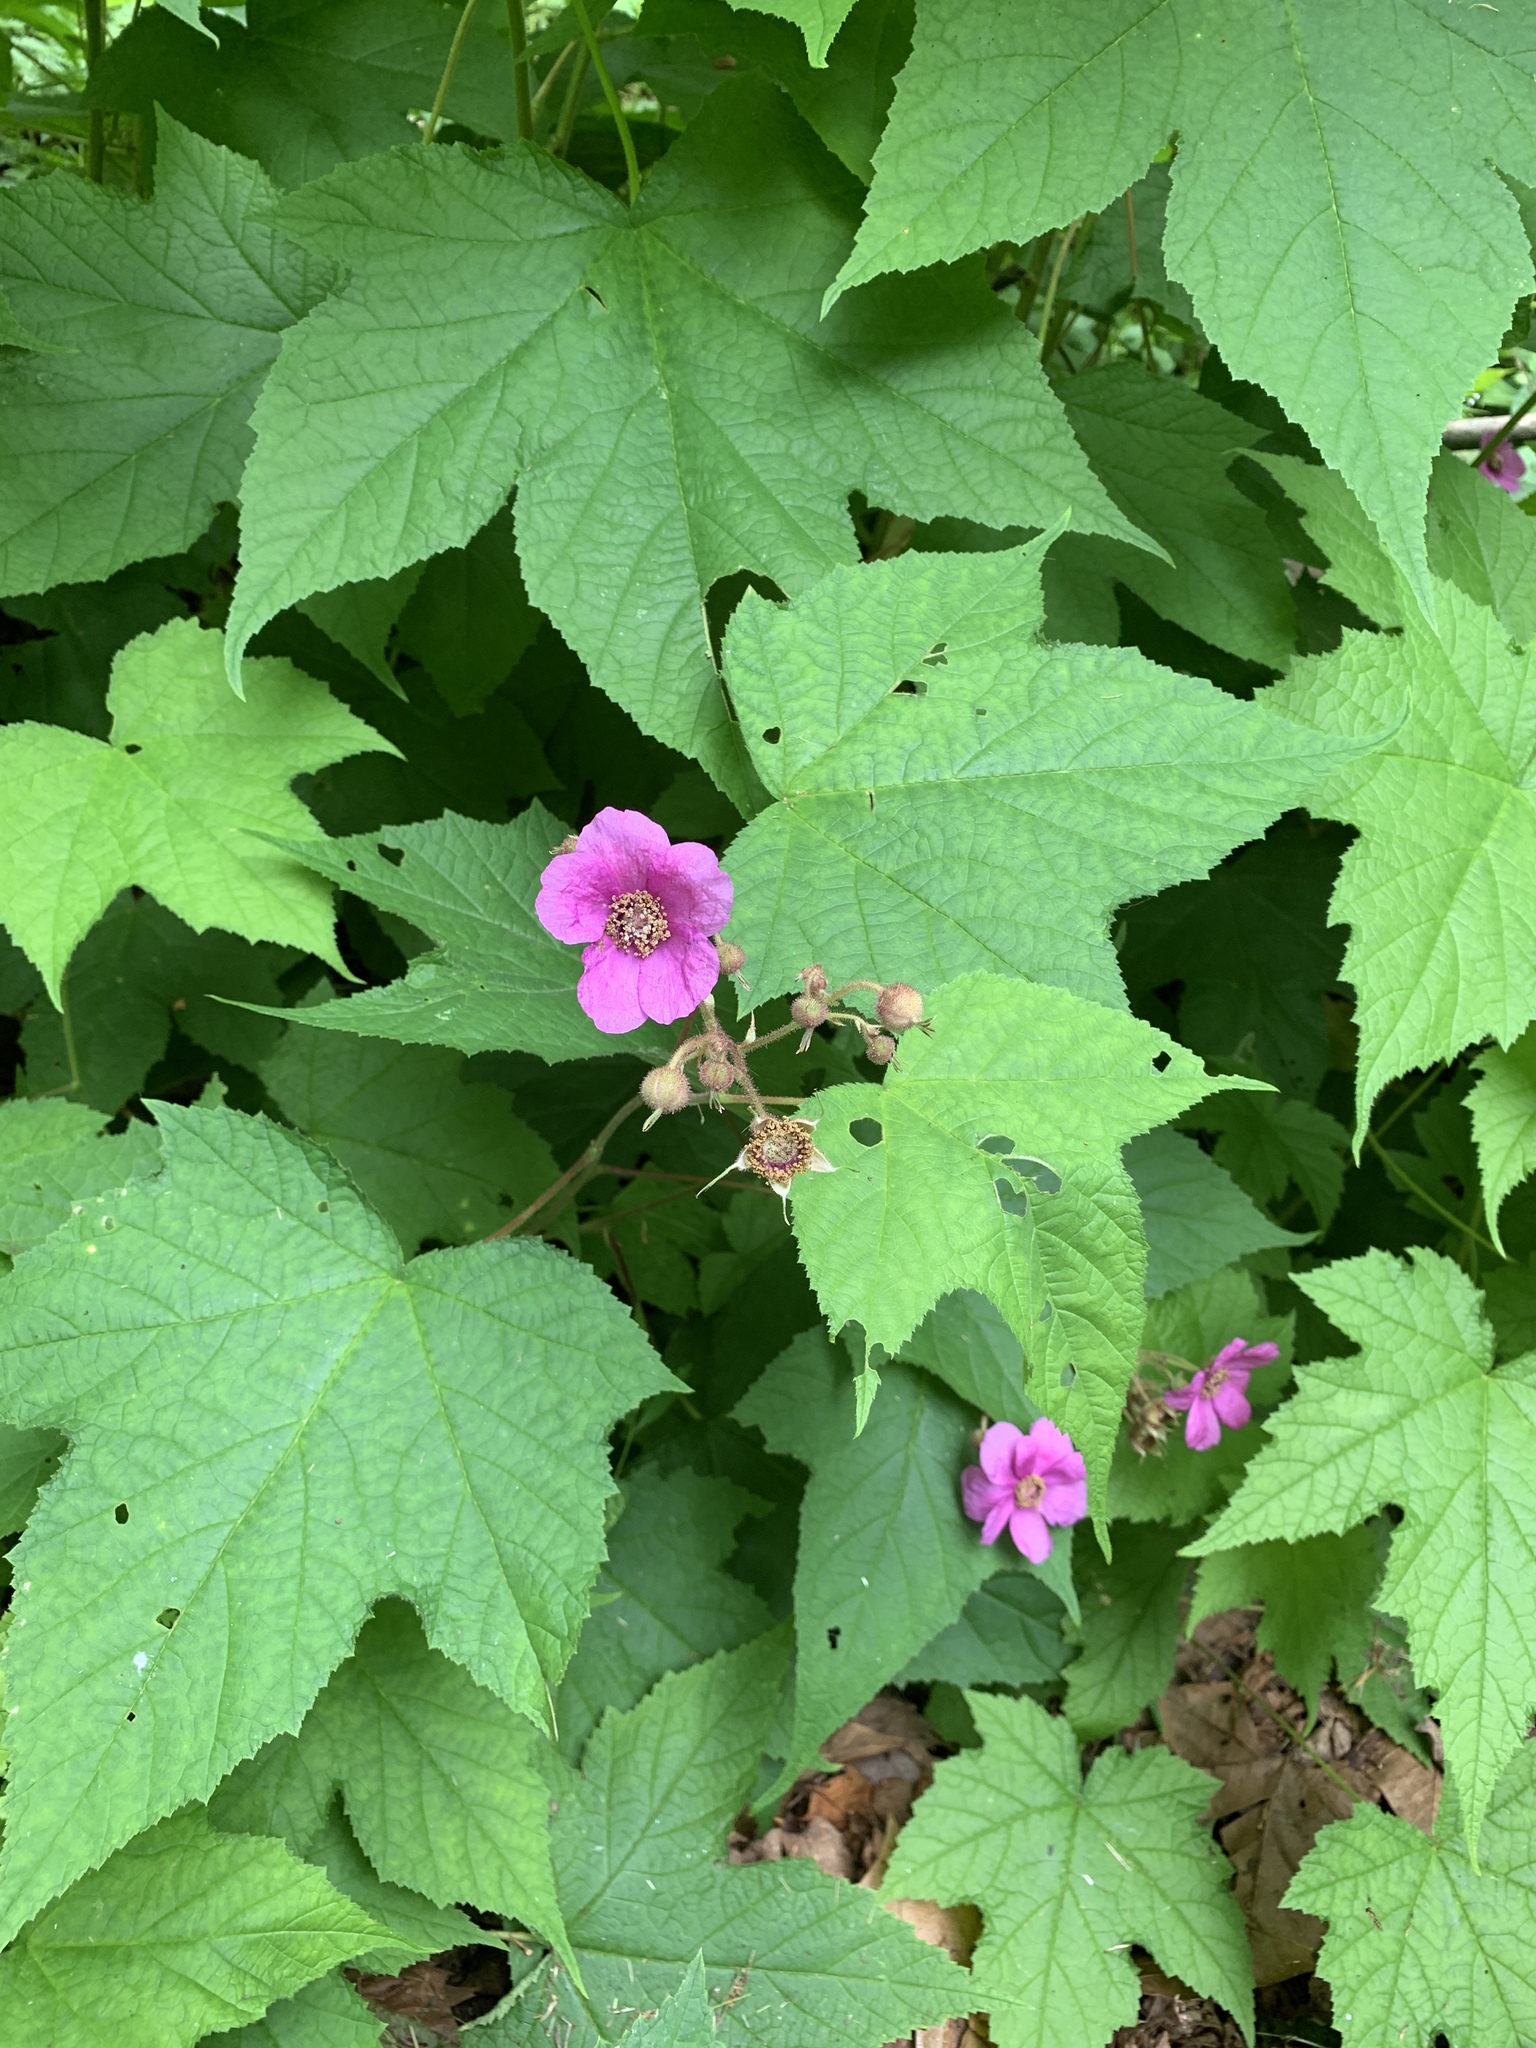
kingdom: Plantae
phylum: Tracheophyta
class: Magnoliopsida
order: Rosales
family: Rosaceae
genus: Rubus
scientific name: Rubus odoratus
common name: Purple-flowered raspberry
